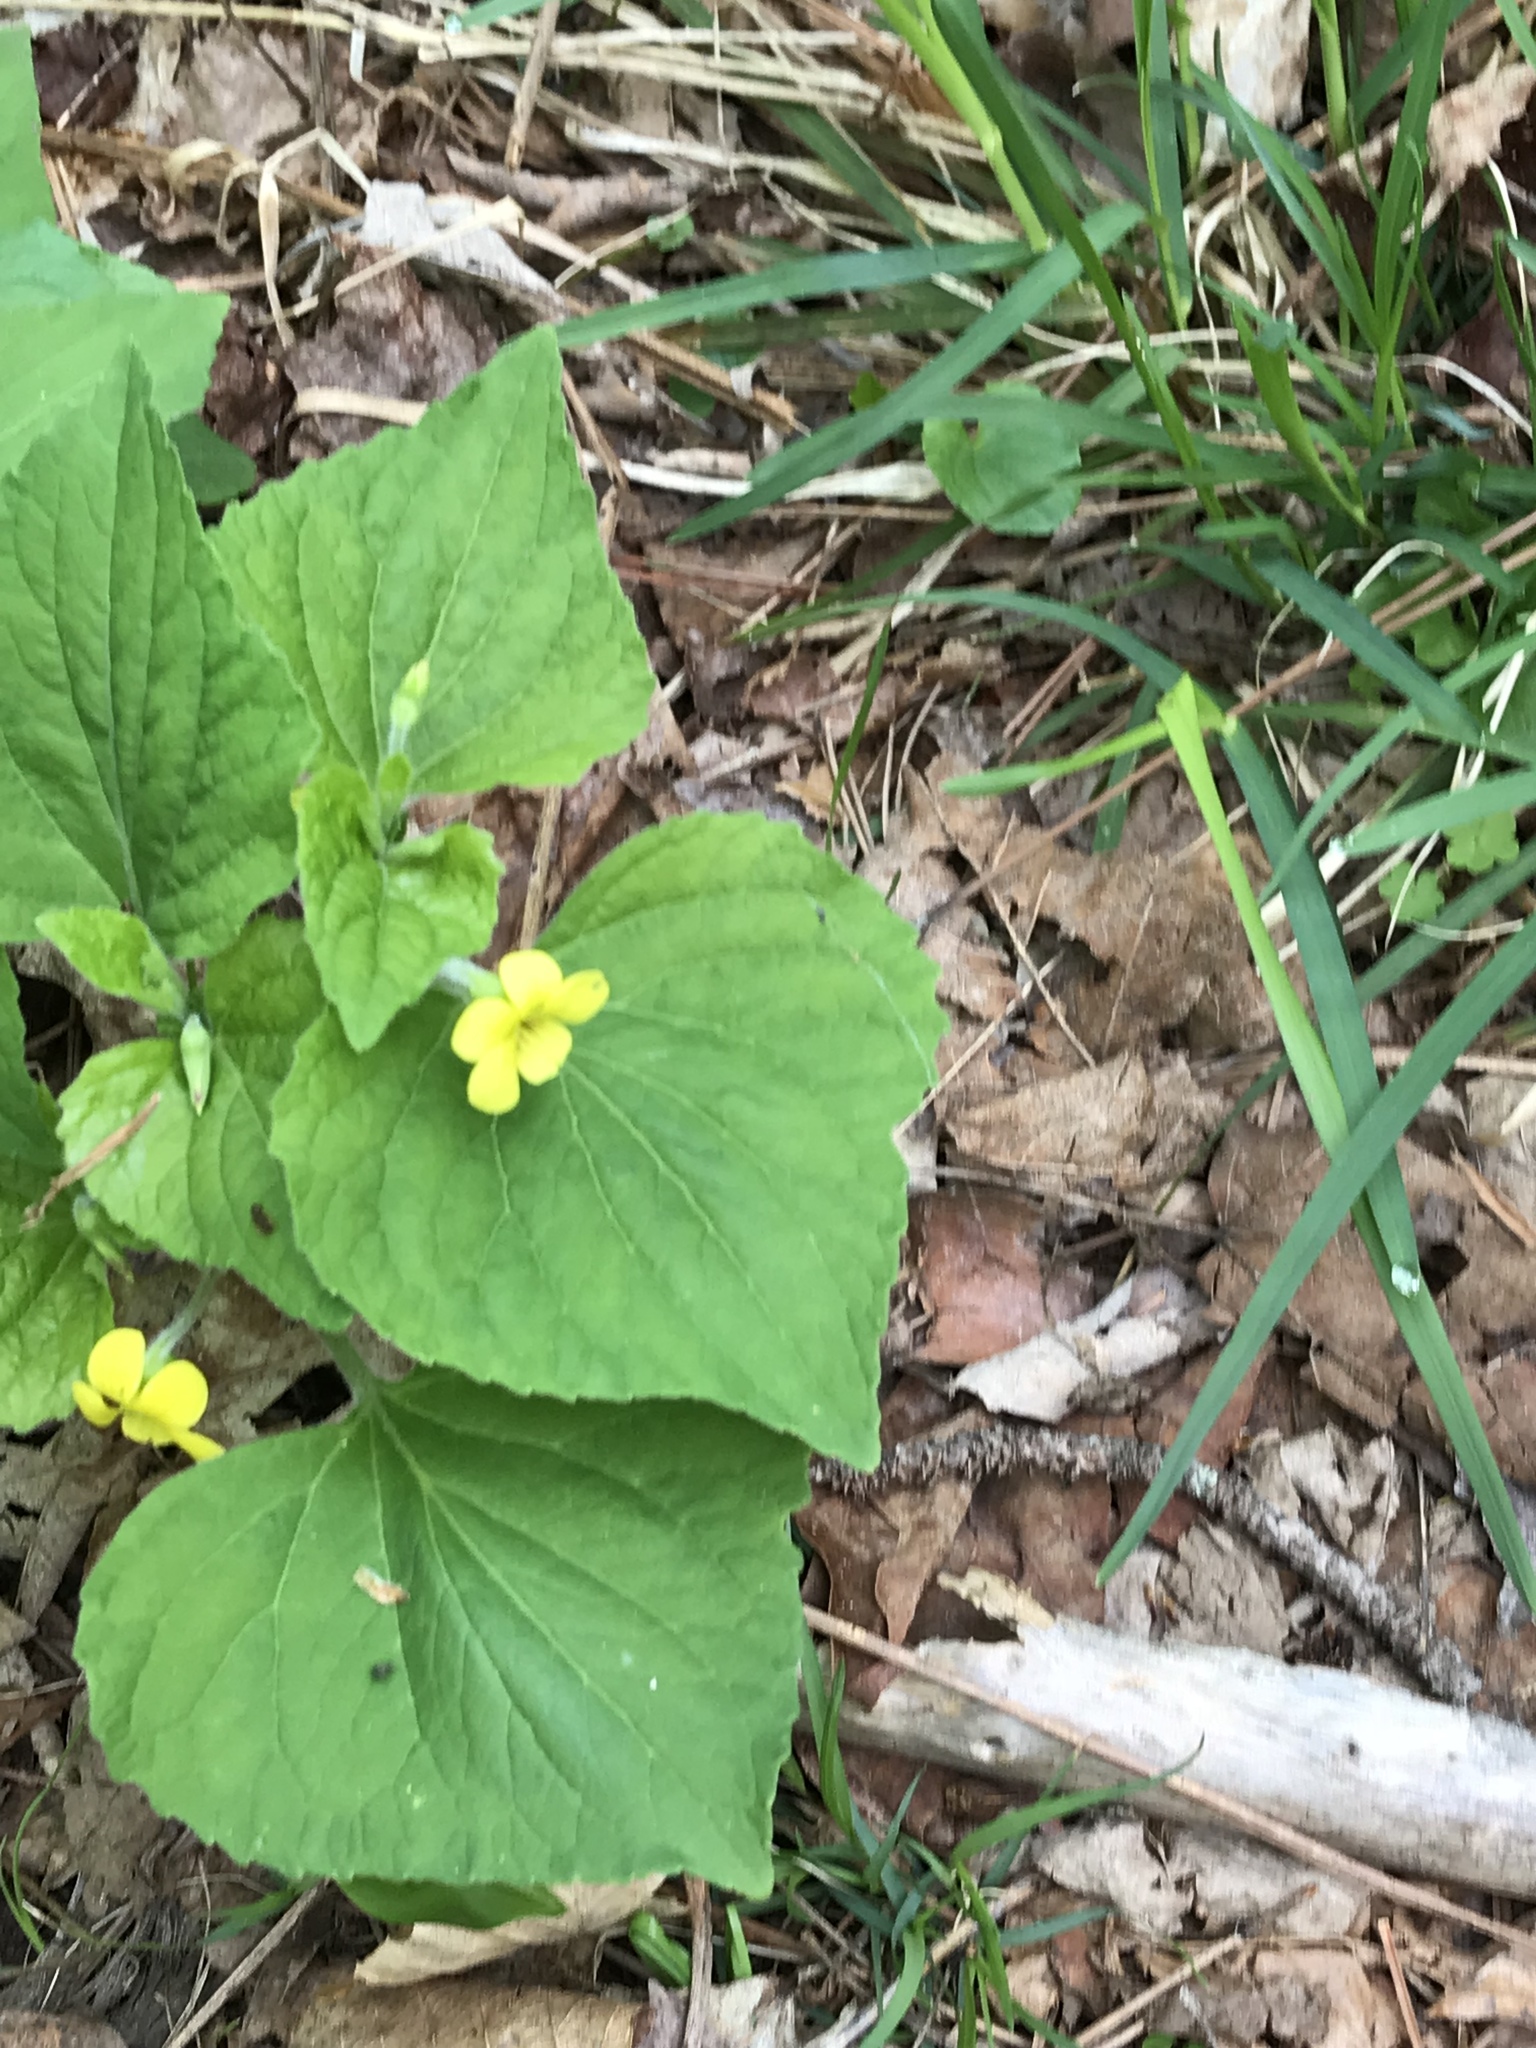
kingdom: Plantae
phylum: Tracheophyta
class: Magnoliopsida
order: Malpighiales
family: Violaceae
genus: Viola
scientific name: Viola pubescens
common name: Yellow forest violet
